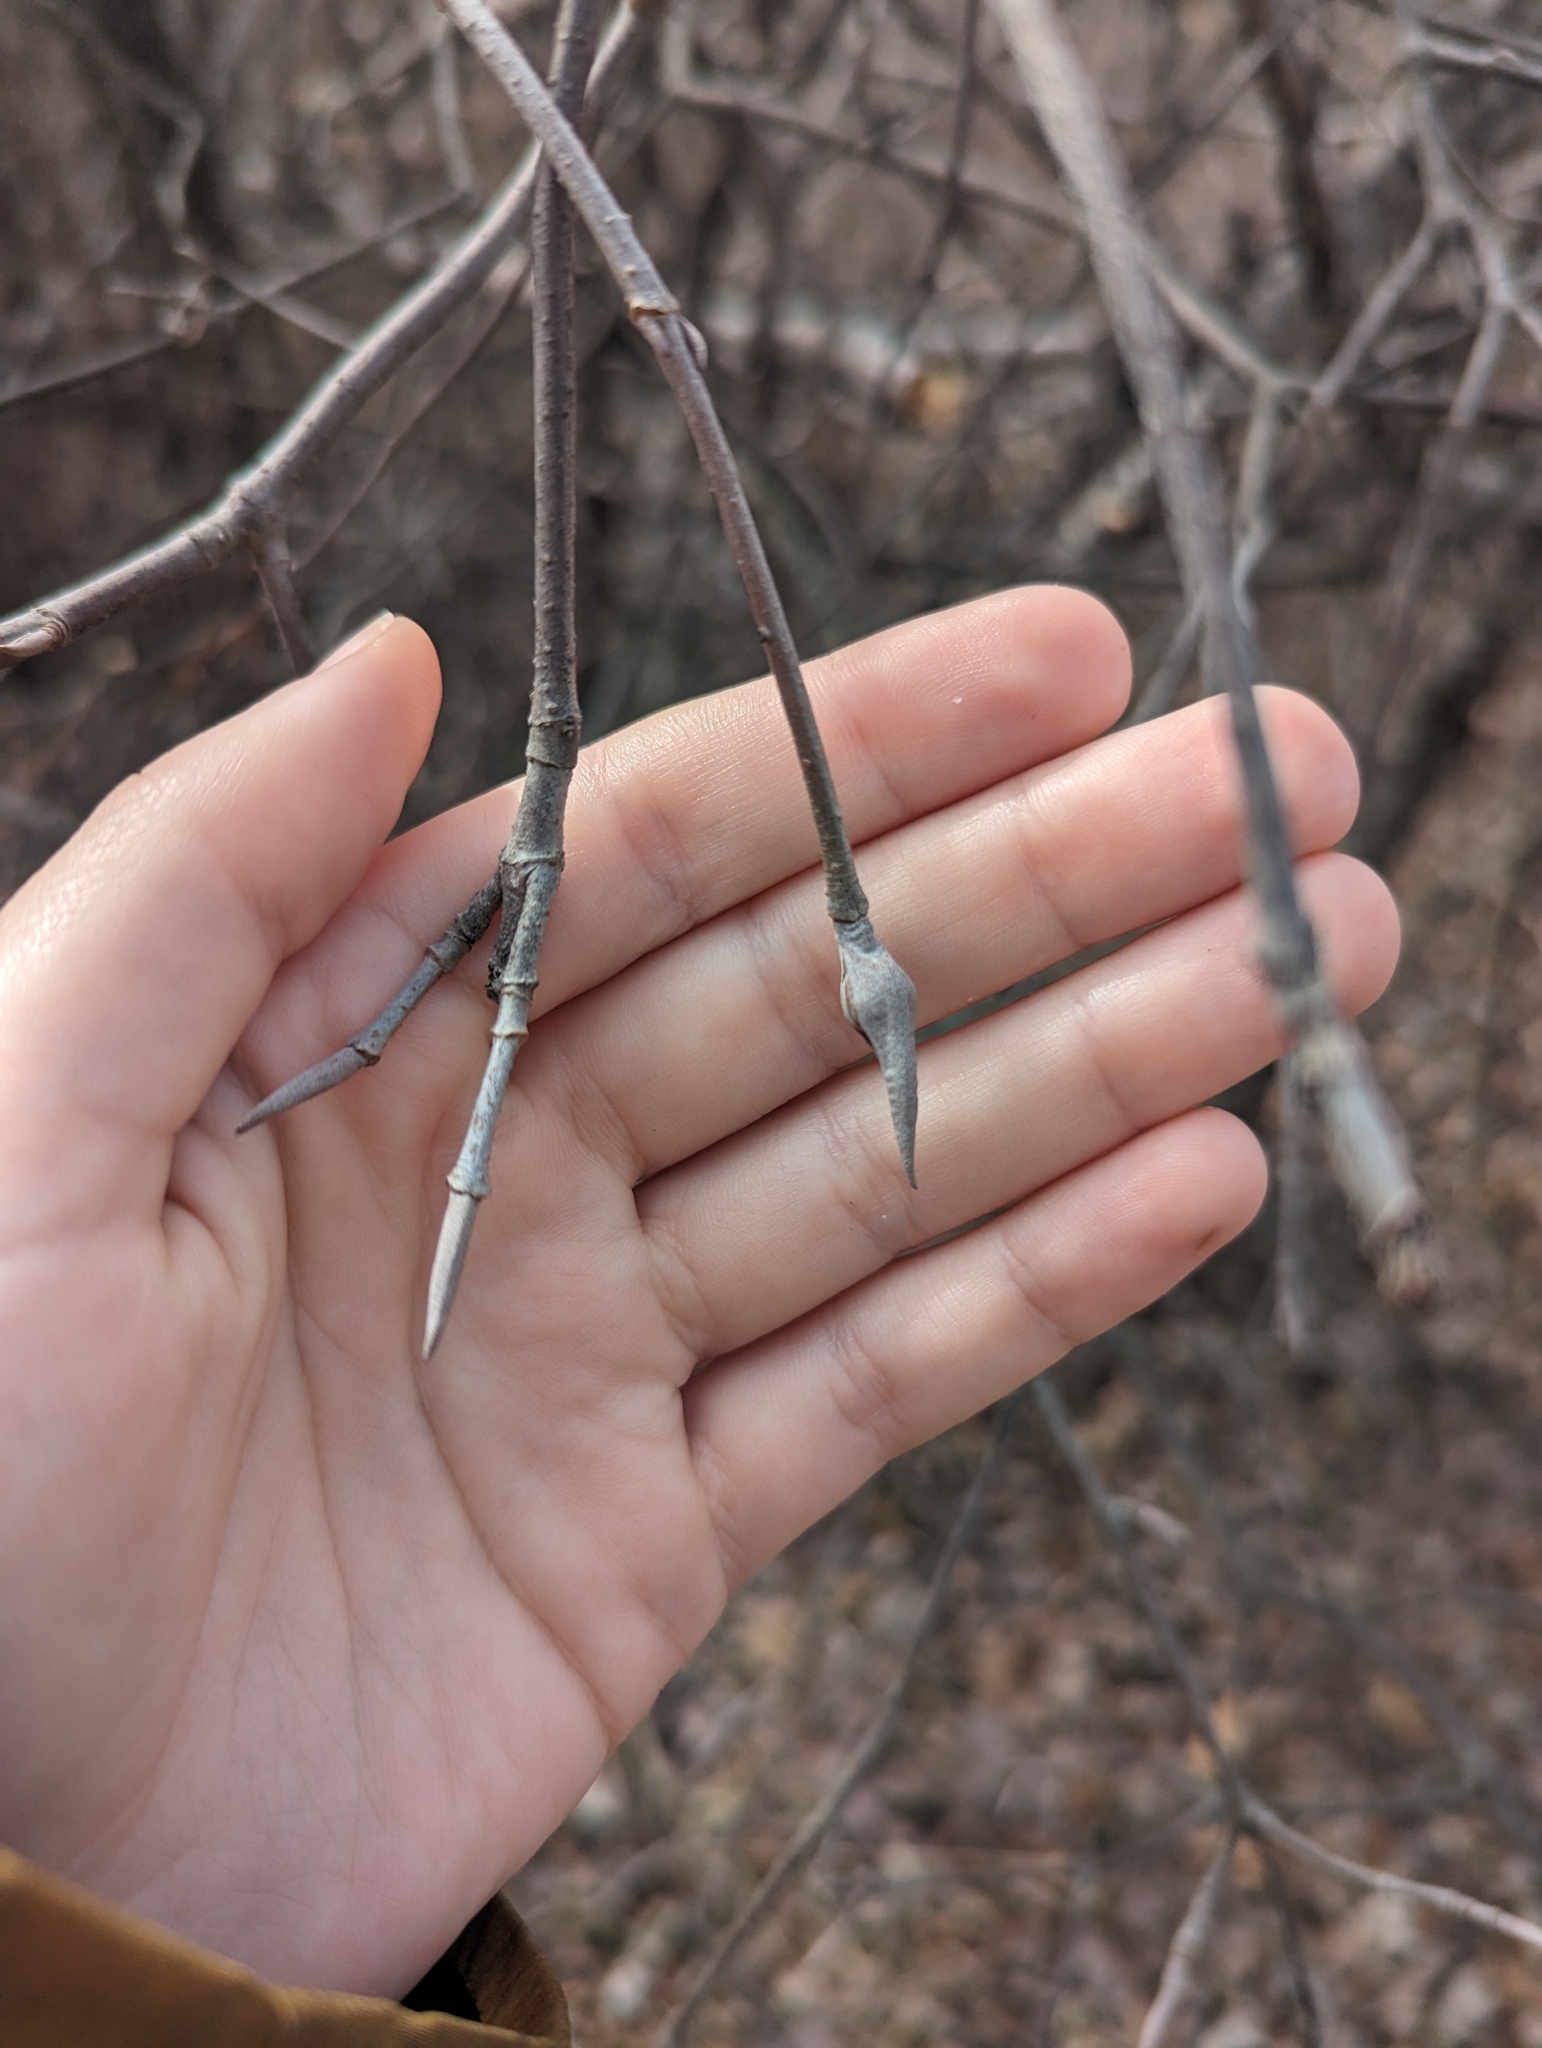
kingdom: Plantae
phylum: Tracheophyta
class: Magnoliopsida
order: Dipsacales
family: Viburnaceae
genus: Viburnum
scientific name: Viburnum lentago
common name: Black haw
